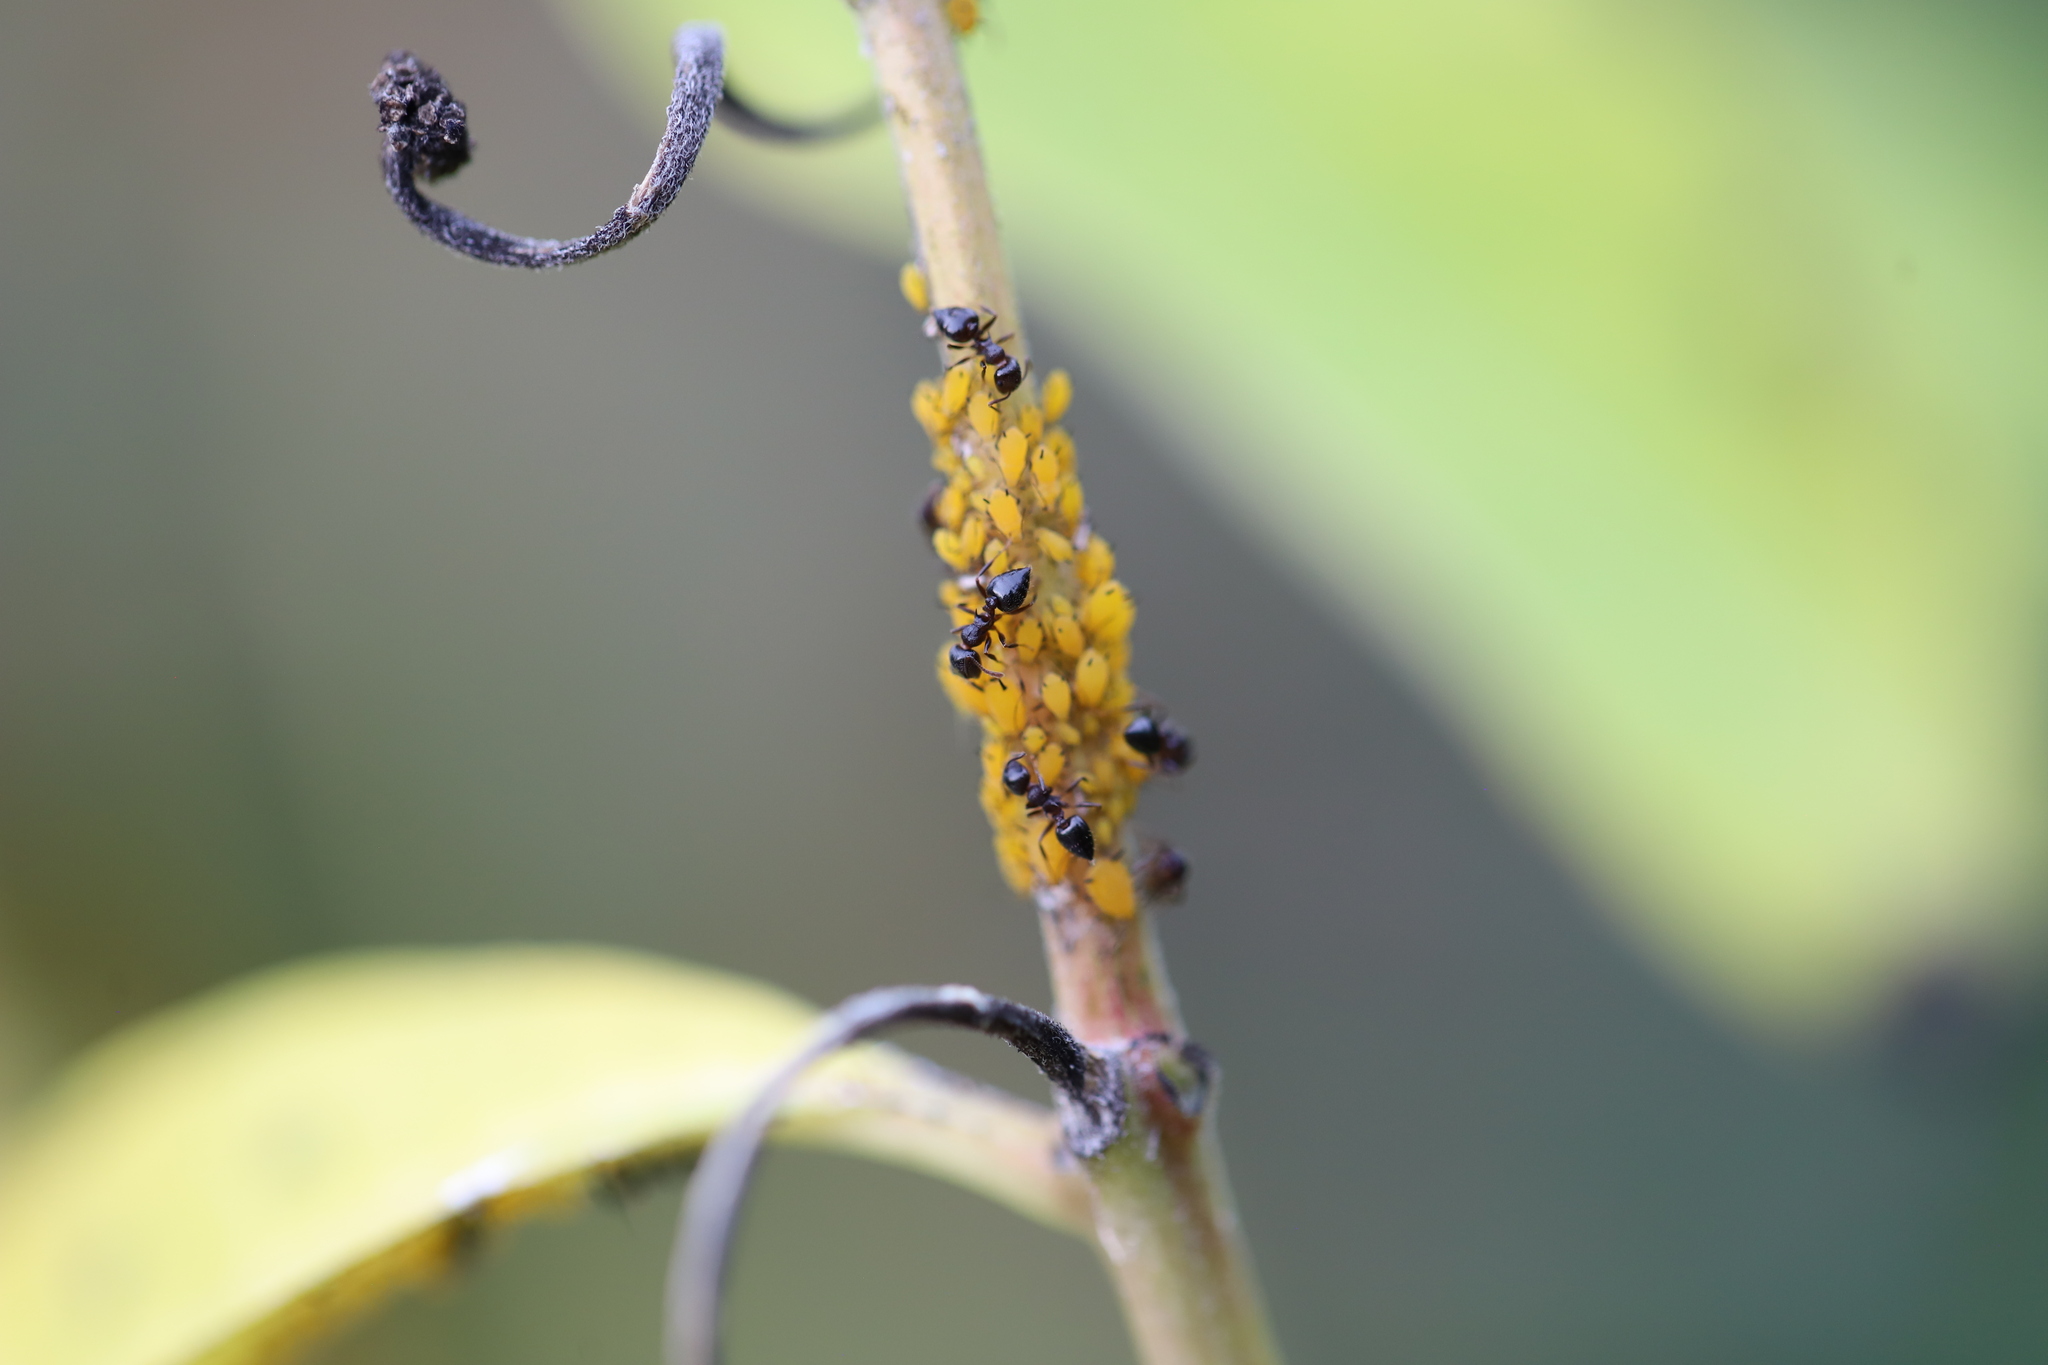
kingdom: Animalia
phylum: Arthropoda
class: Insecta
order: Hymenoptera
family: Formicidae
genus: Crematogaster
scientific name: Crematogaster
